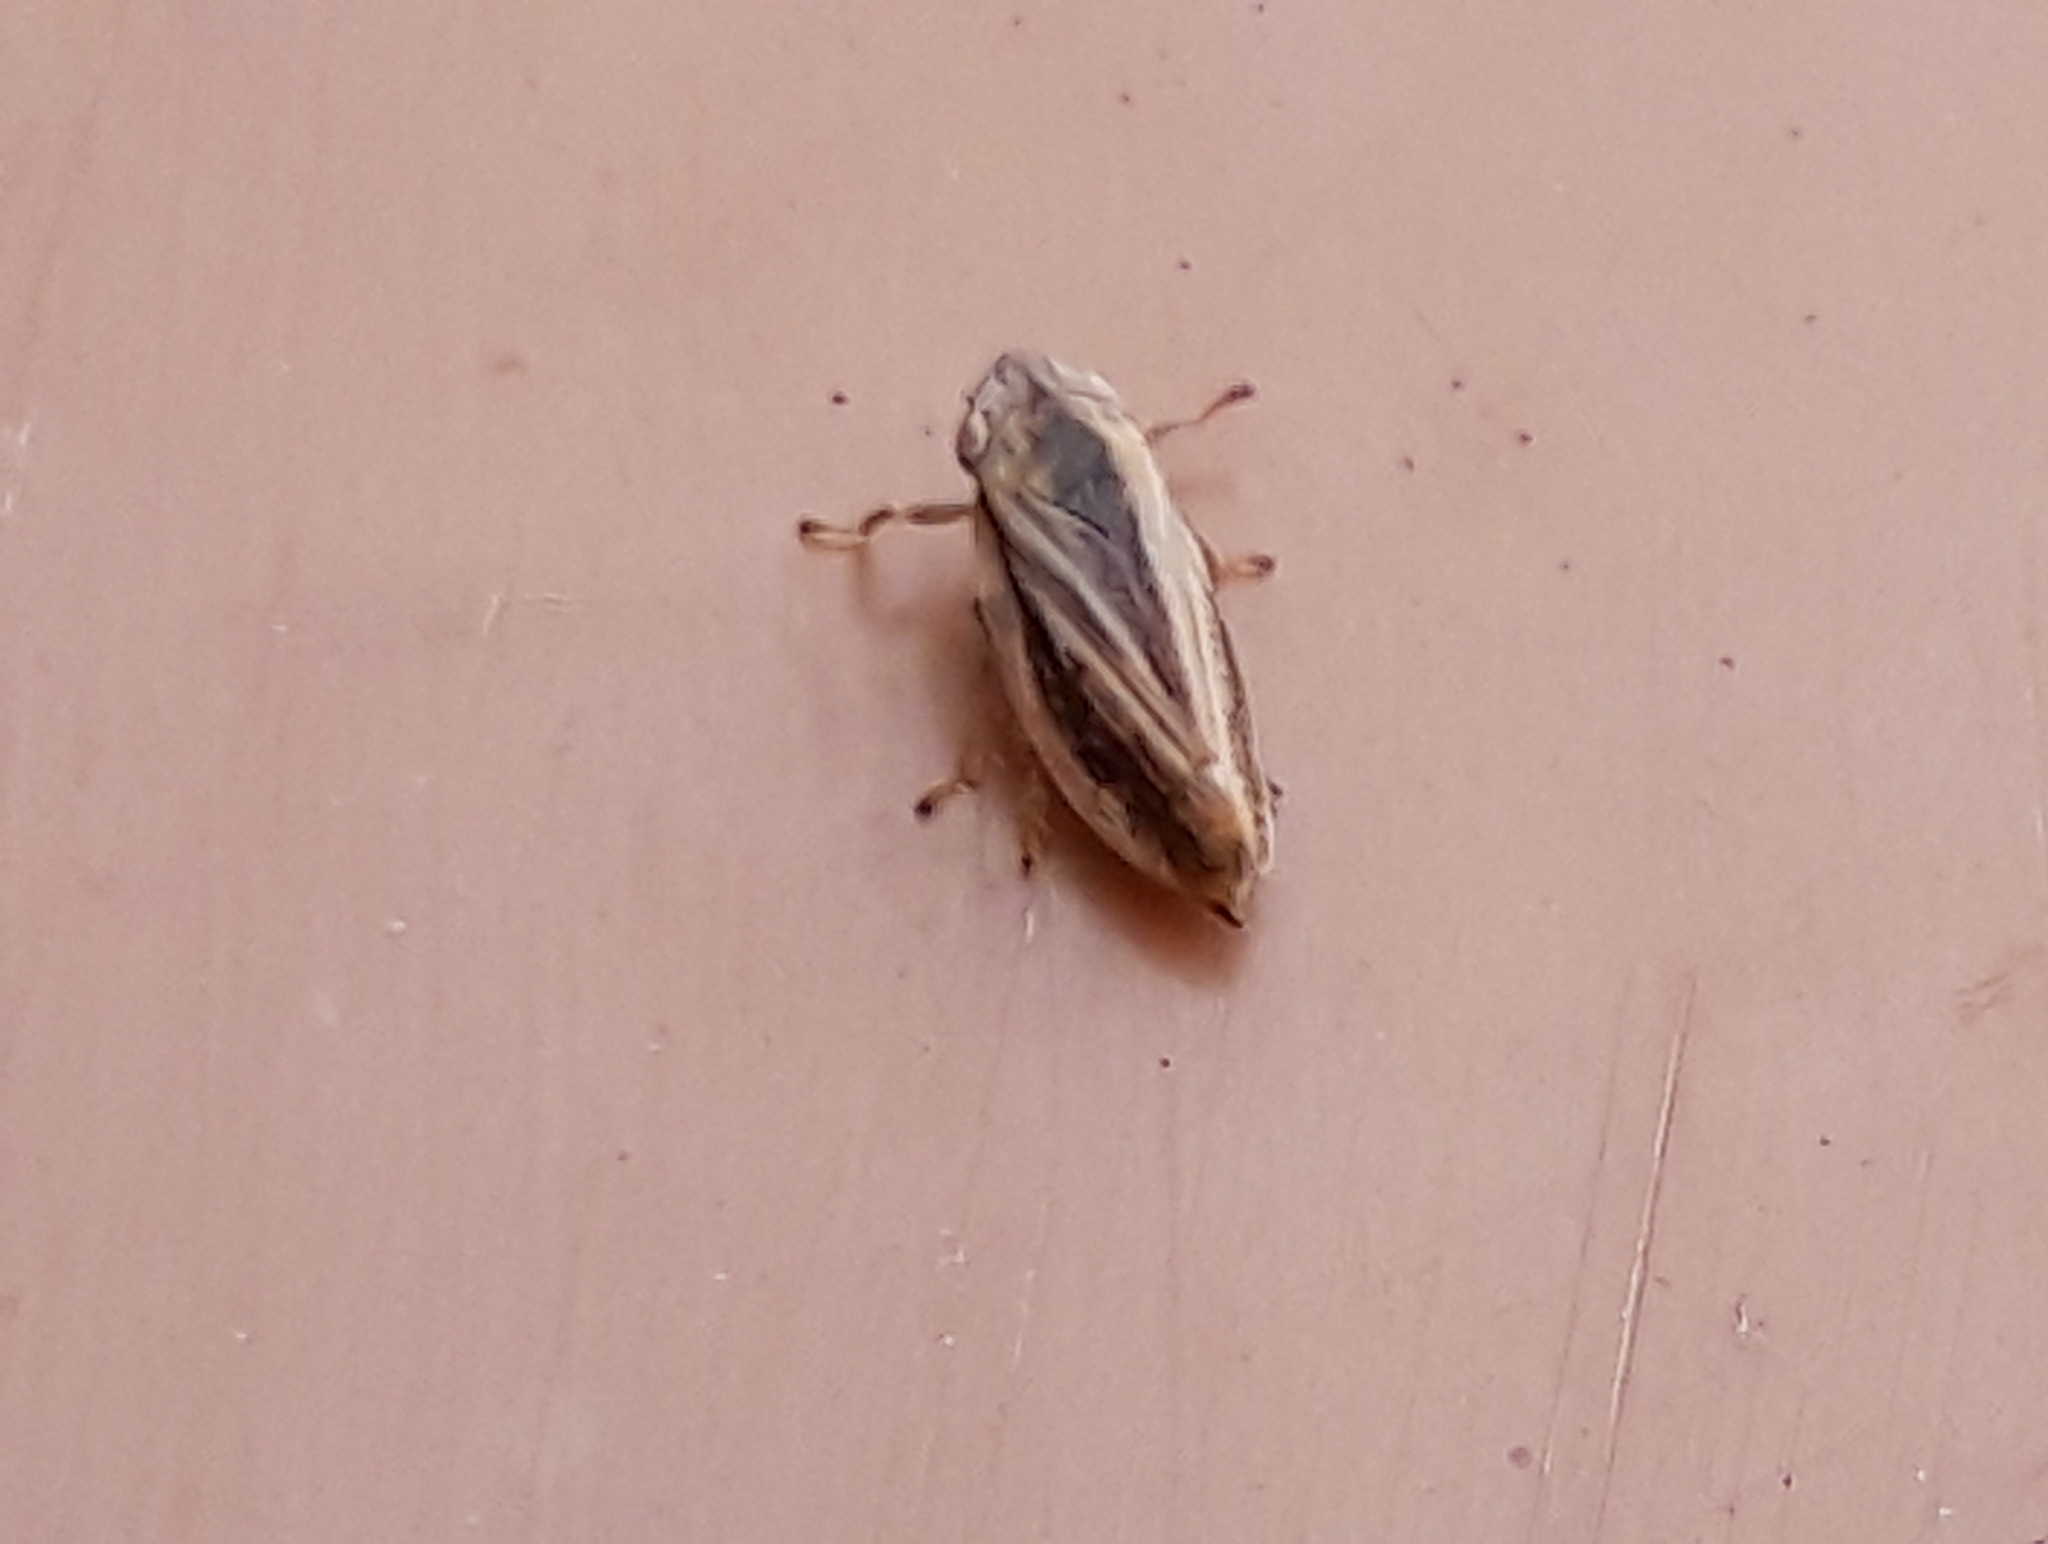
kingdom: Animalia
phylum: Arthropoda
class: Insecta
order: Hemiptera
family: Aphrophoridae
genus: Philaenus
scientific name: Philaenus spumarius
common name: Meadow spittlebug
